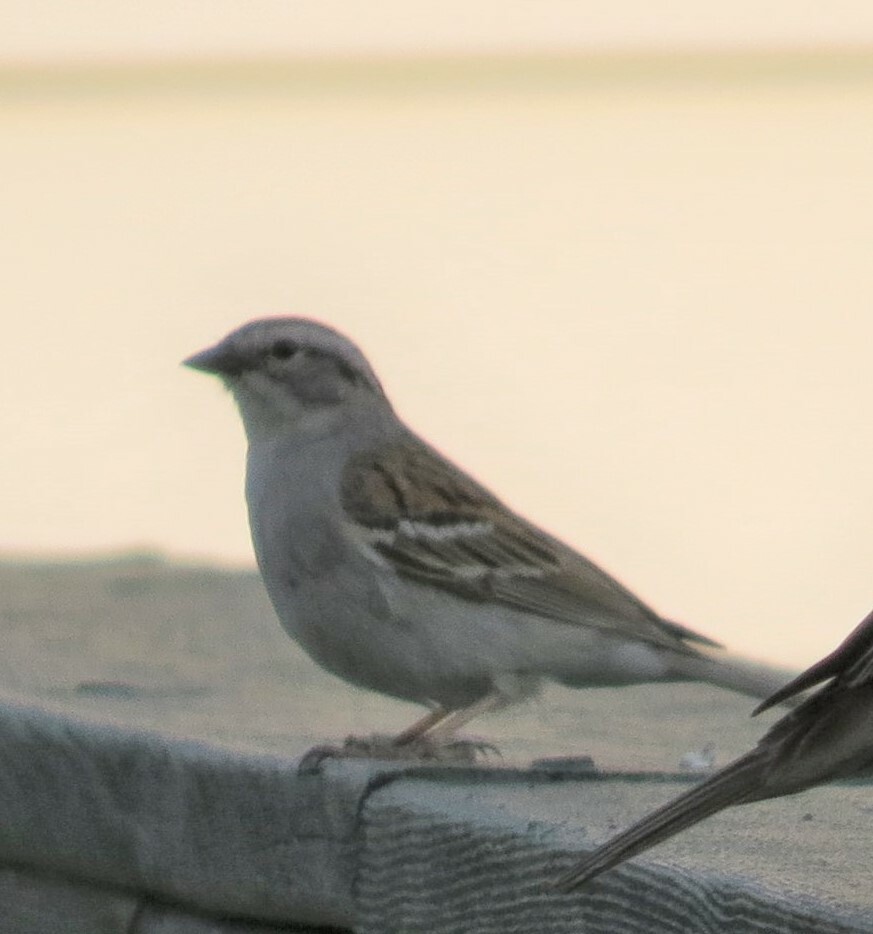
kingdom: Animalia
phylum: Chordata
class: Aves
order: Passeriformes
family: Passerellidae
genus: Spizella
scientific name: Spizella passerina
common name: Chipping sparrow
